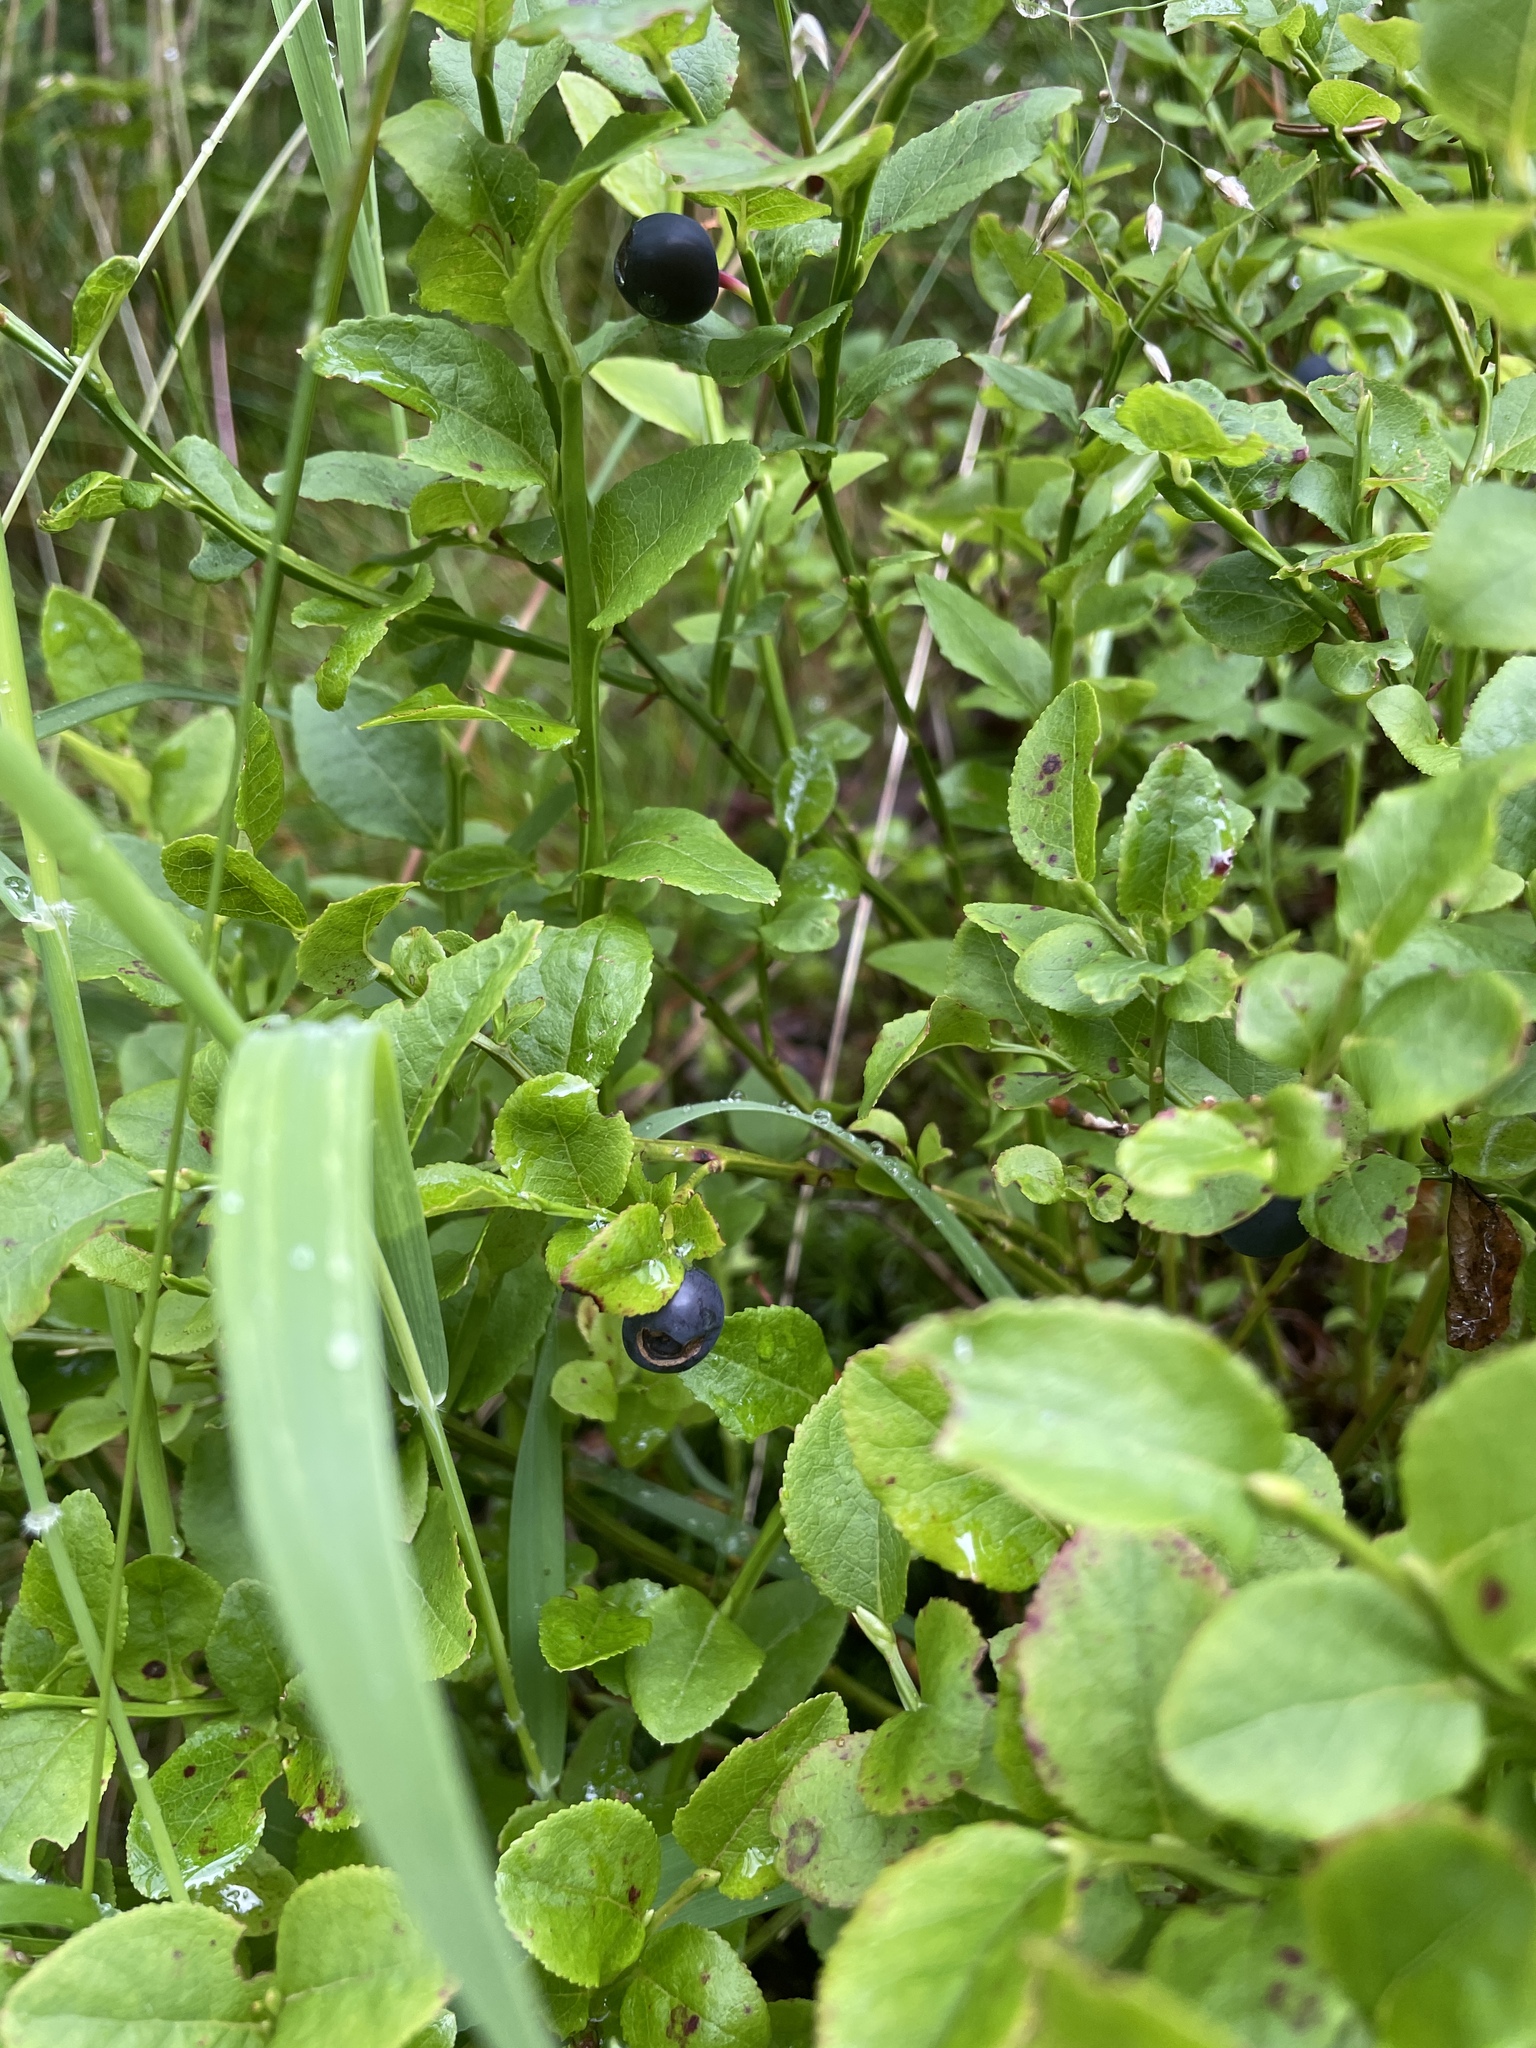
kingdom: Plantae
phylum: Tracheophyta
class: Magnoliopsida
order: Ericales
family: Ericaceae
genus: Vaccinium
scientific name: Vaccinium myrtillus
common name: Bilberry
